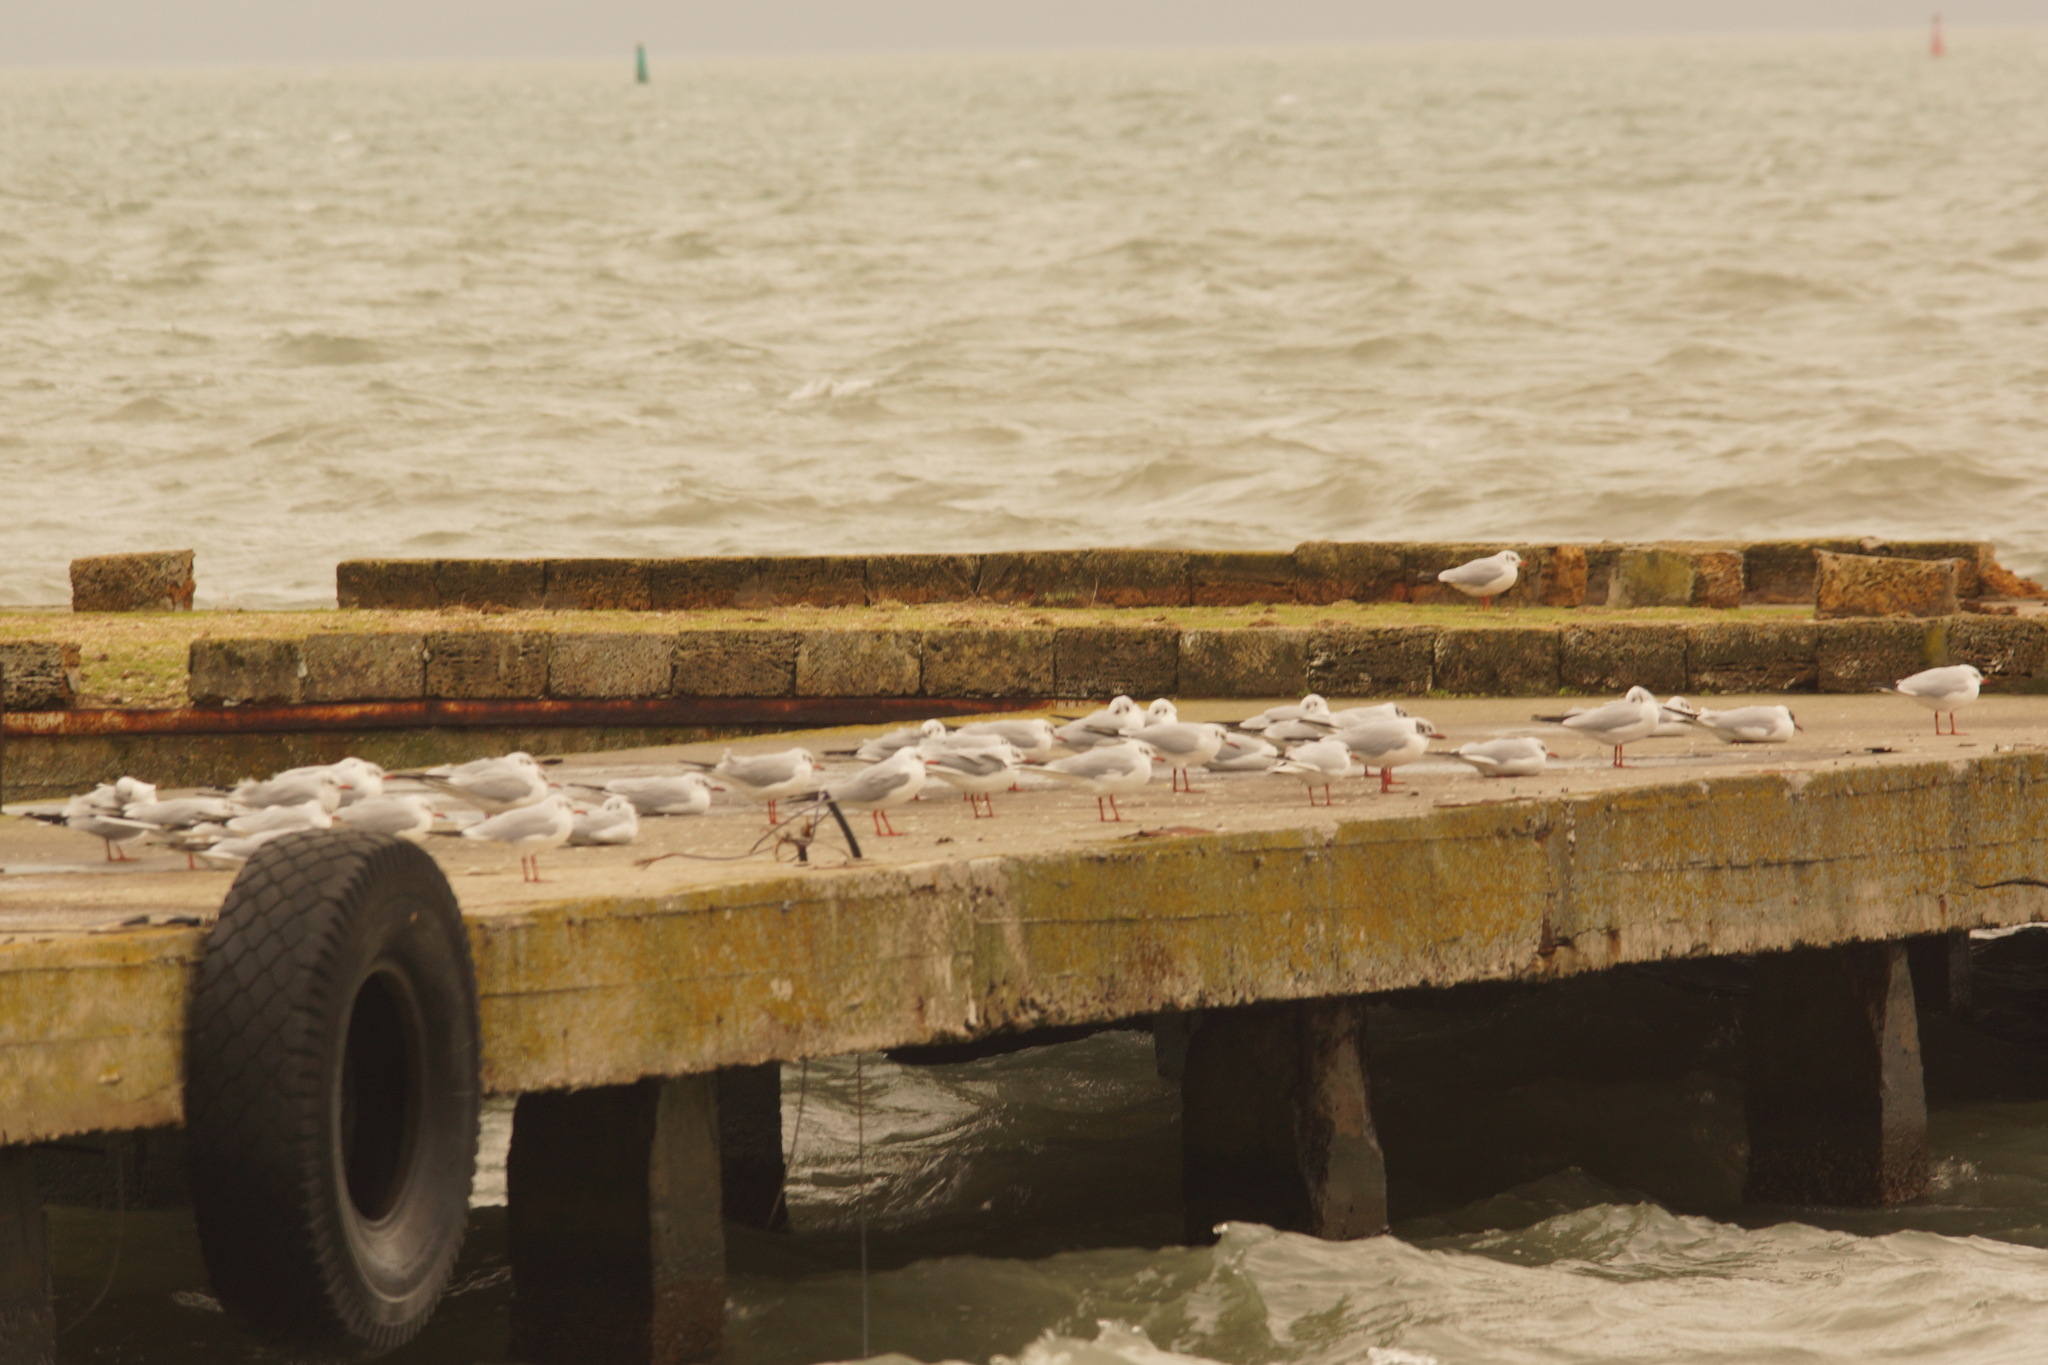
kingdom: Animalia
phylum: Chordata
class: Aves
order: Charadriiformes
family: Laridae
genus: Chroicocephalus
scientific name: Chroicocephalus ridibundus
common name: Black-headed gull
